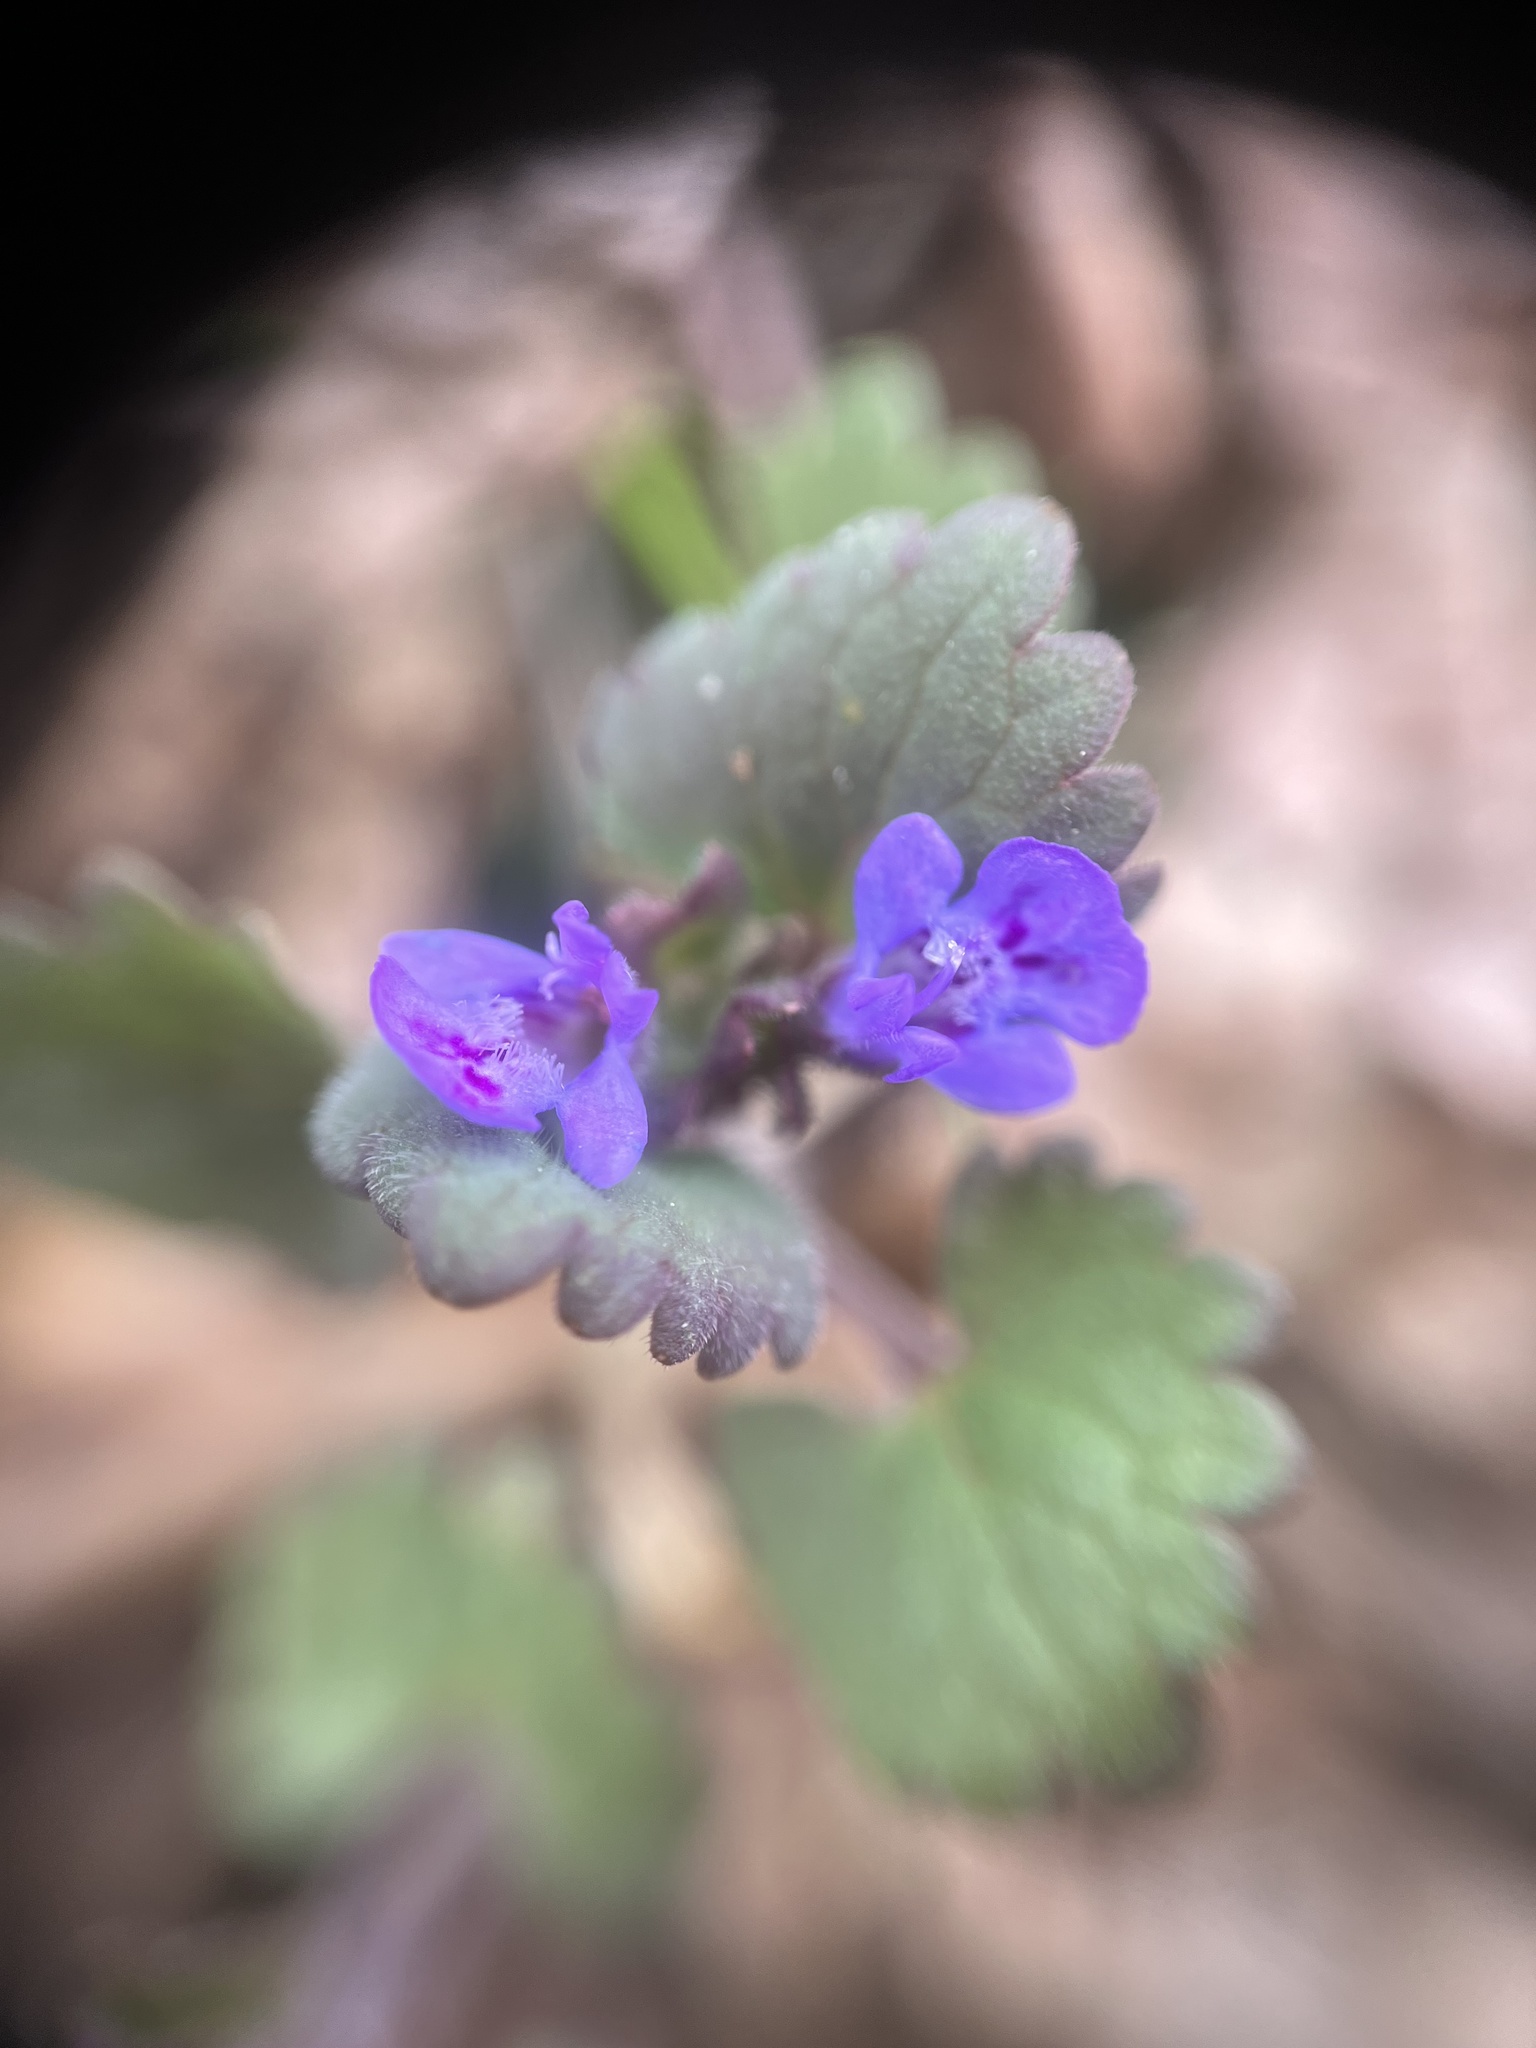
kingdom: Plantae
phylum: Tracheophyta
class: Magnoliopsida
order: Lamiales
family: Lamiaceae
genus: Glechoma
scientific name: Glechoma hederacea
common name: Ground ivy
